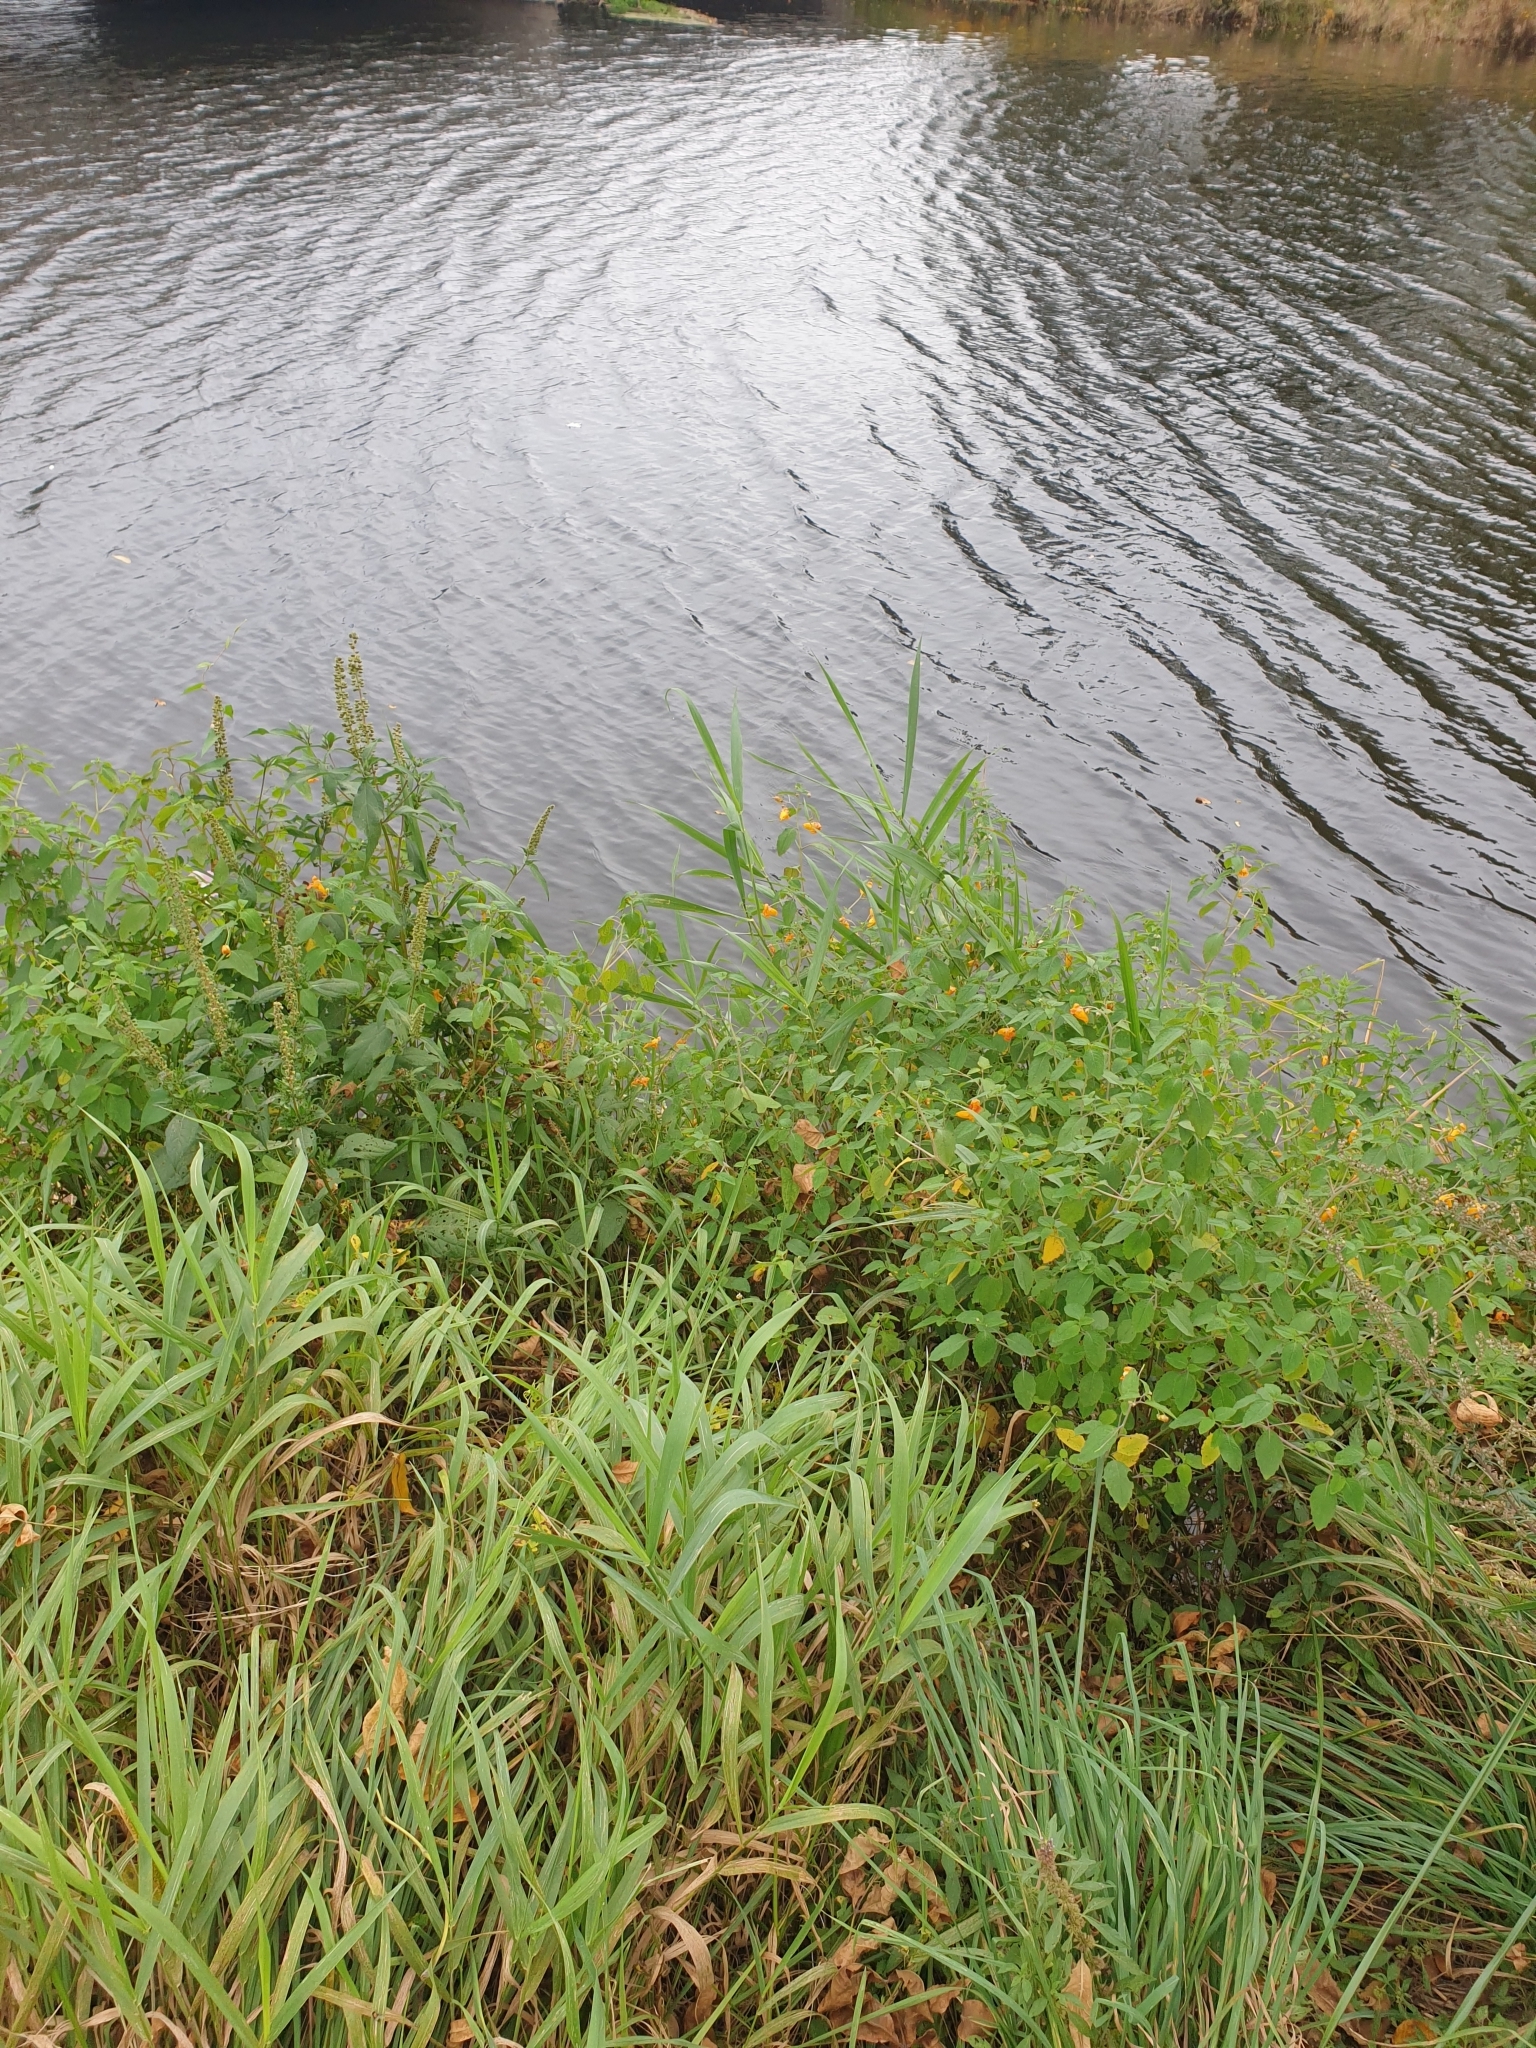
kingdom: Plantae
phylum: Tracheophyta
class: Magnoliopsida
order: Ericales
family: Balsaminaceae
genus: Impatiens
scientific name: Impatiens capensis
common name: Orange balsam
